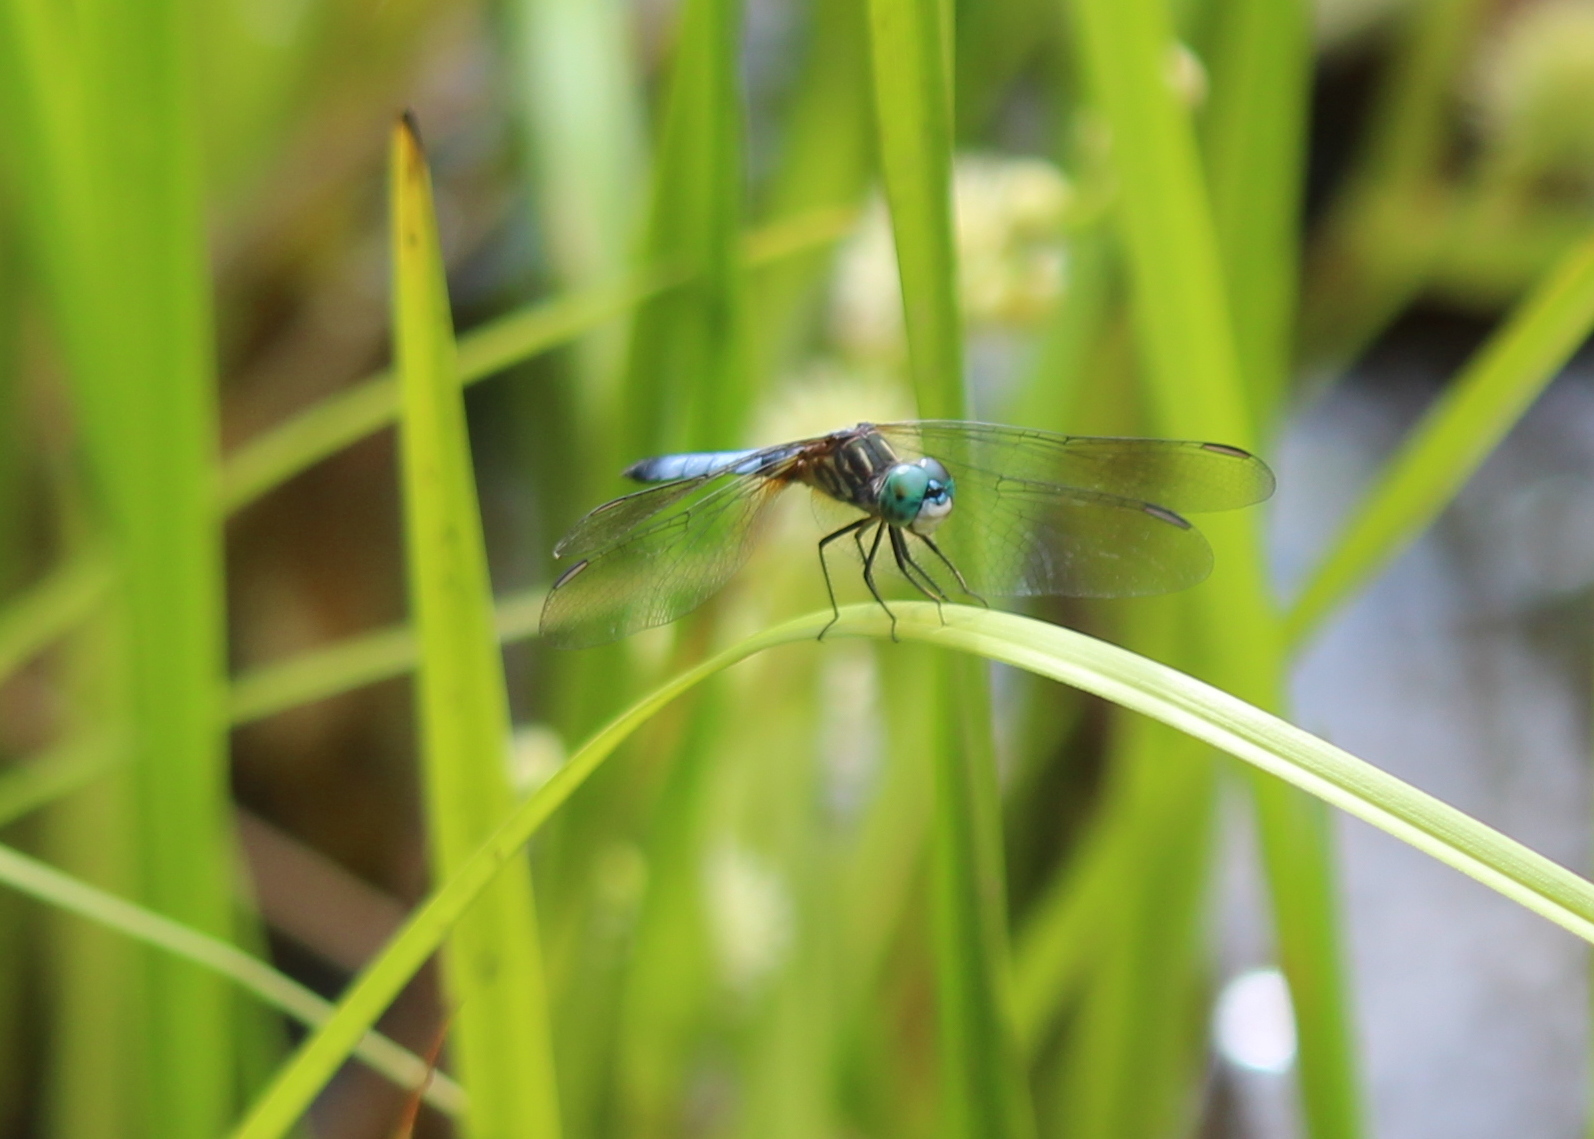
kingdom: Animalia
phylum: Arthropoda
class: Insecta
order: Odonata
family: Libellulidae
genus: Pachydiplax
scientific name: Pachydiplax longipennis
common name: Blue dasher
